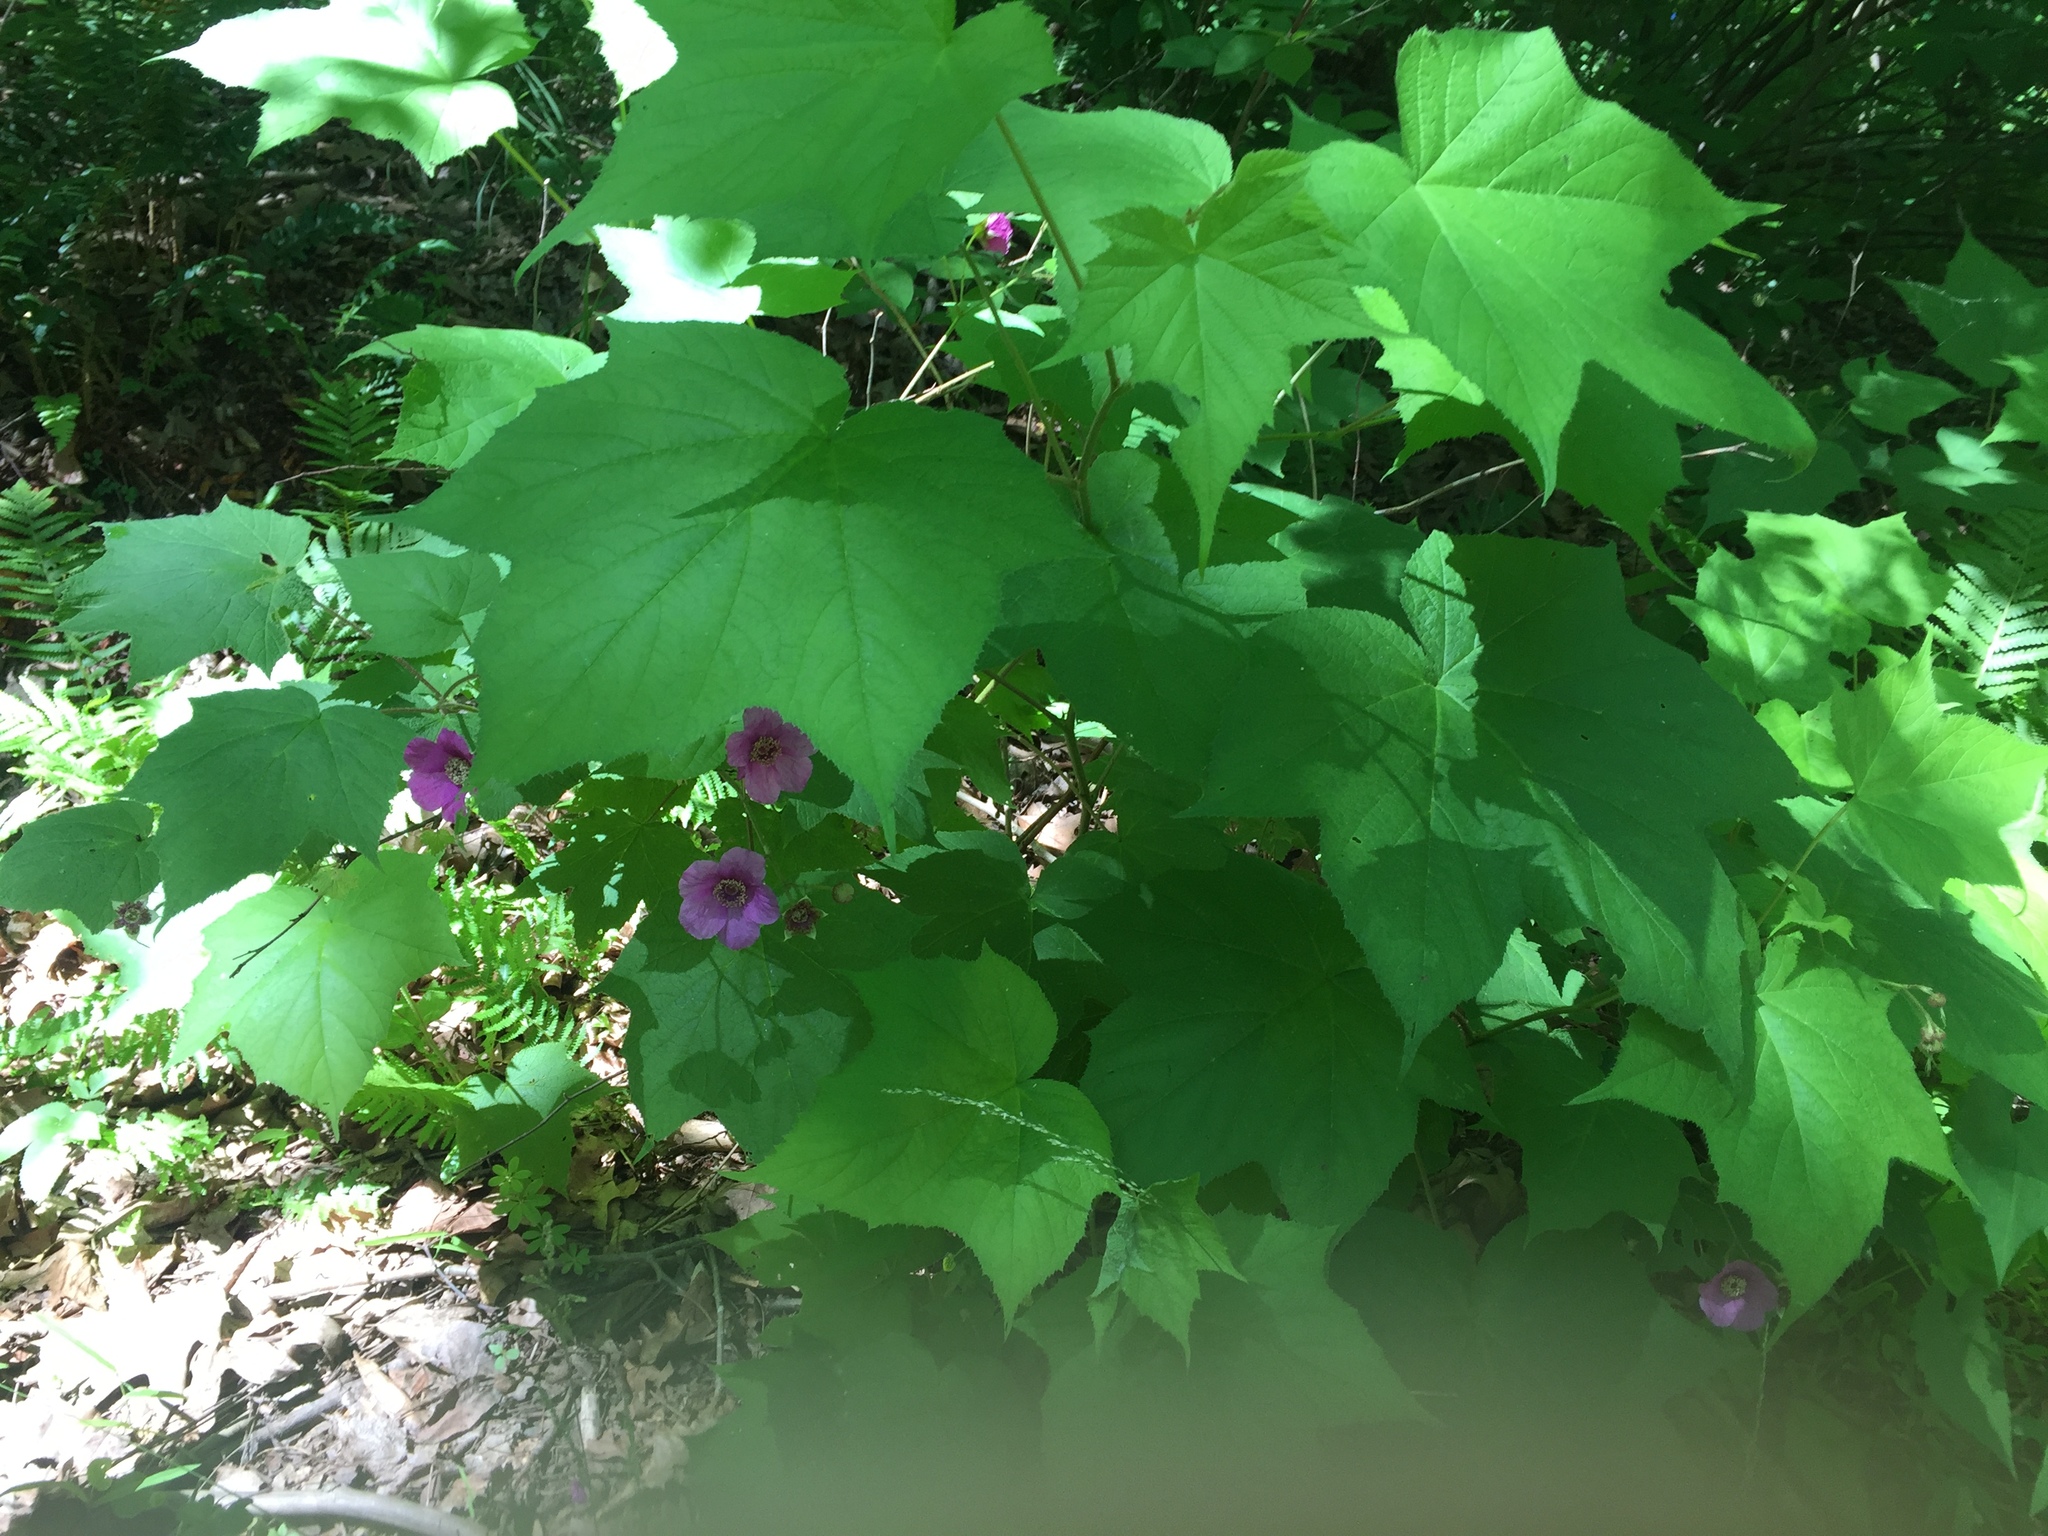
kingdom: Plantae
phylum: Tracheophyta
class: Magnoliopsida
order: Rosales
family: Rosaceae
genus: Rubus
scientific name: Rubus odoratus
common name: Purple-flowered raspberry
